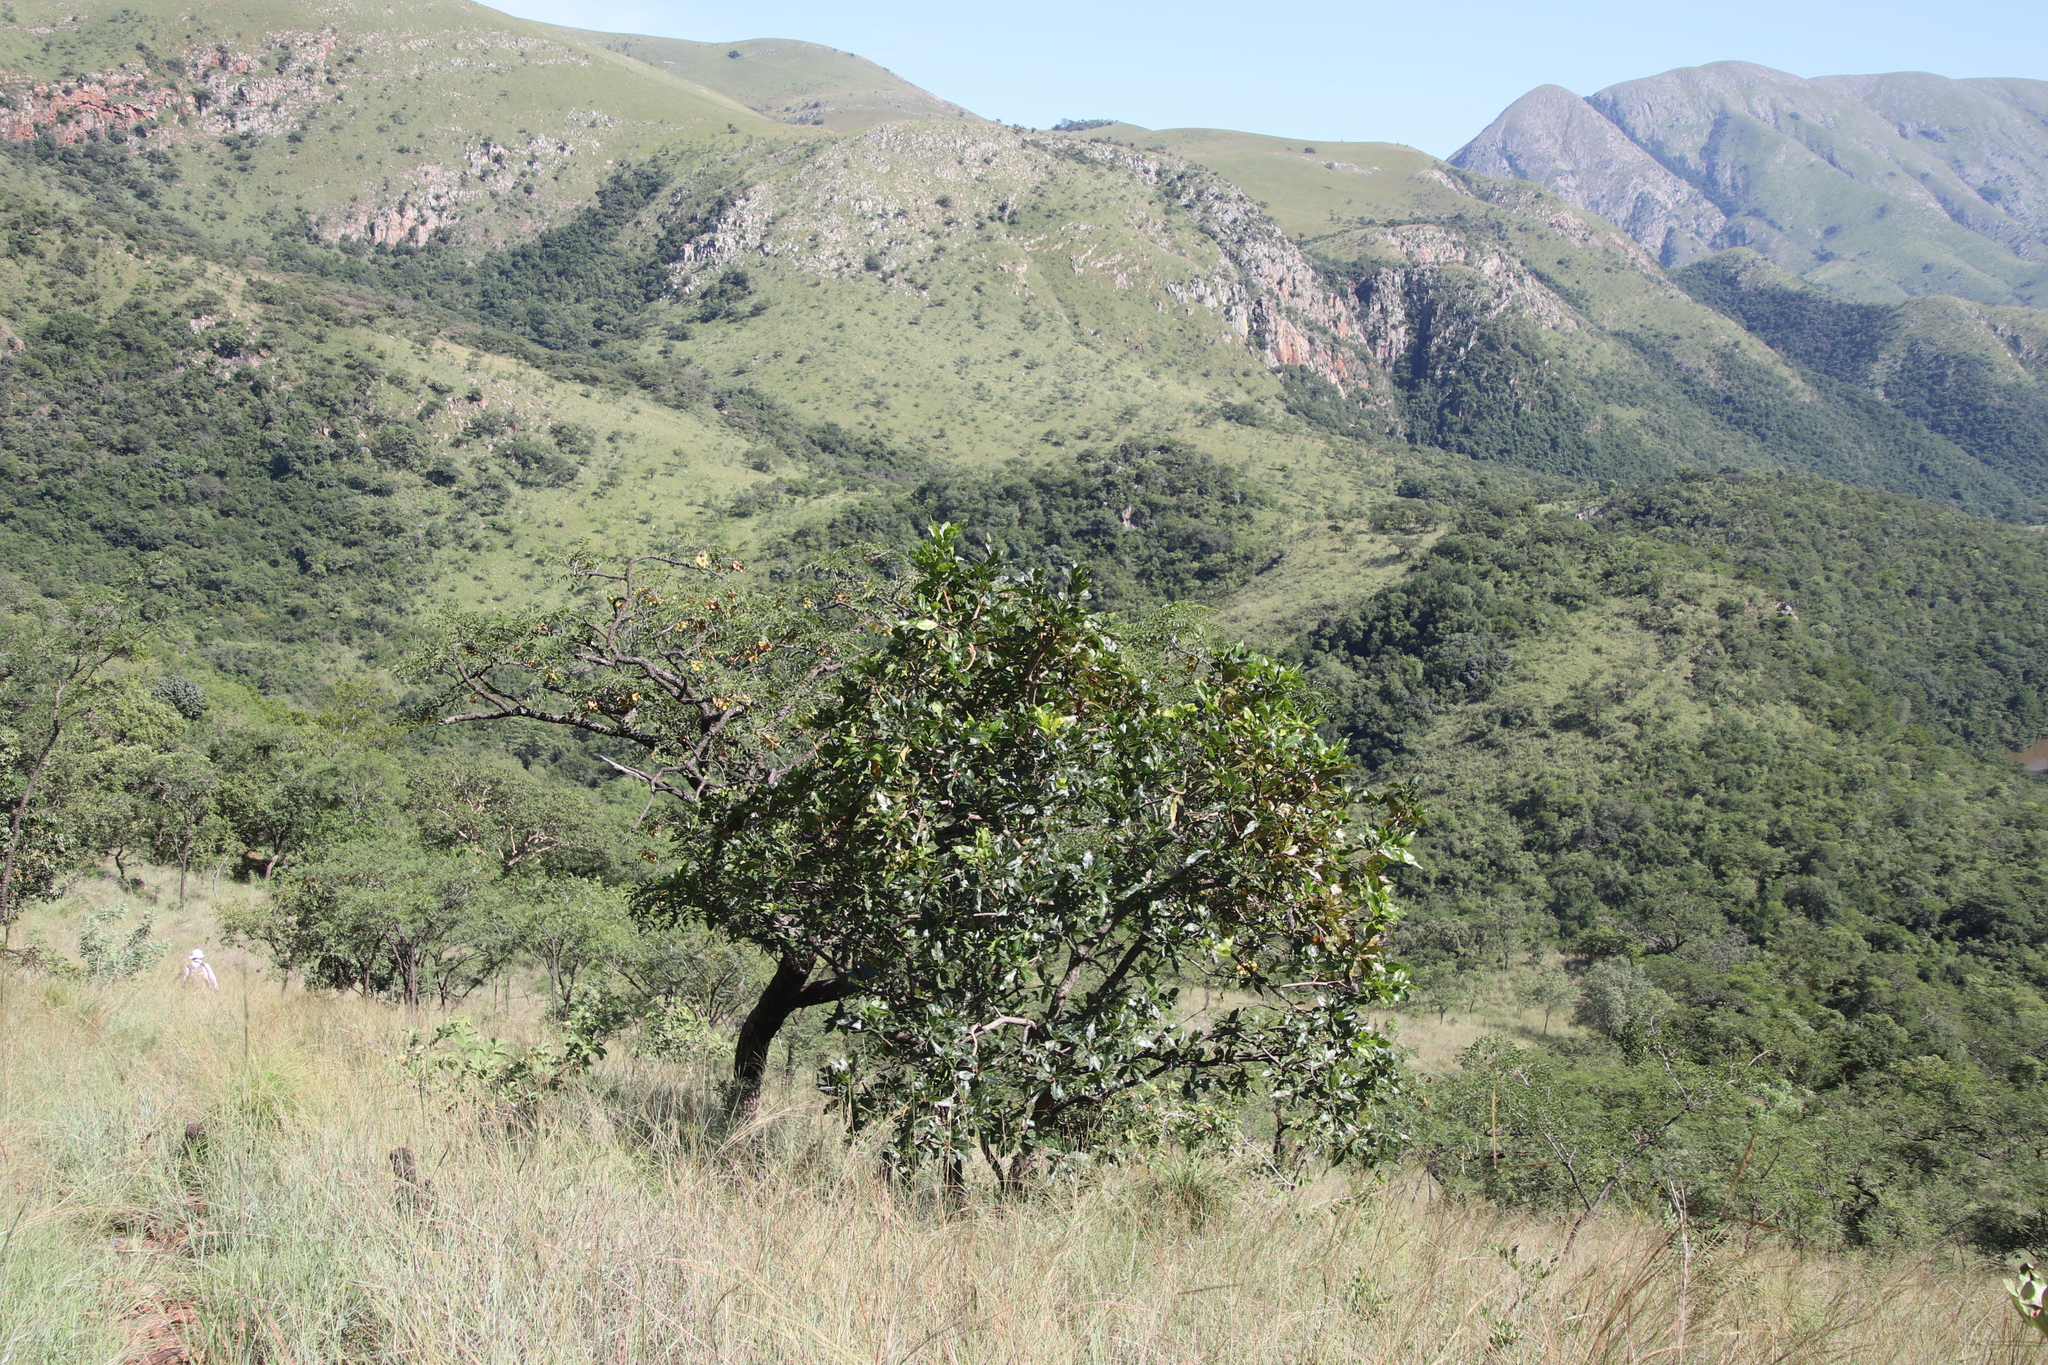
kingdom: Plantae
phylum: Tracheophyta
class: Magnoliopsida
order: Proteales
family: Proteaceae
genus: Faurea
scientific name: Faurea rochetiana
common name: Broad-leaved beech
